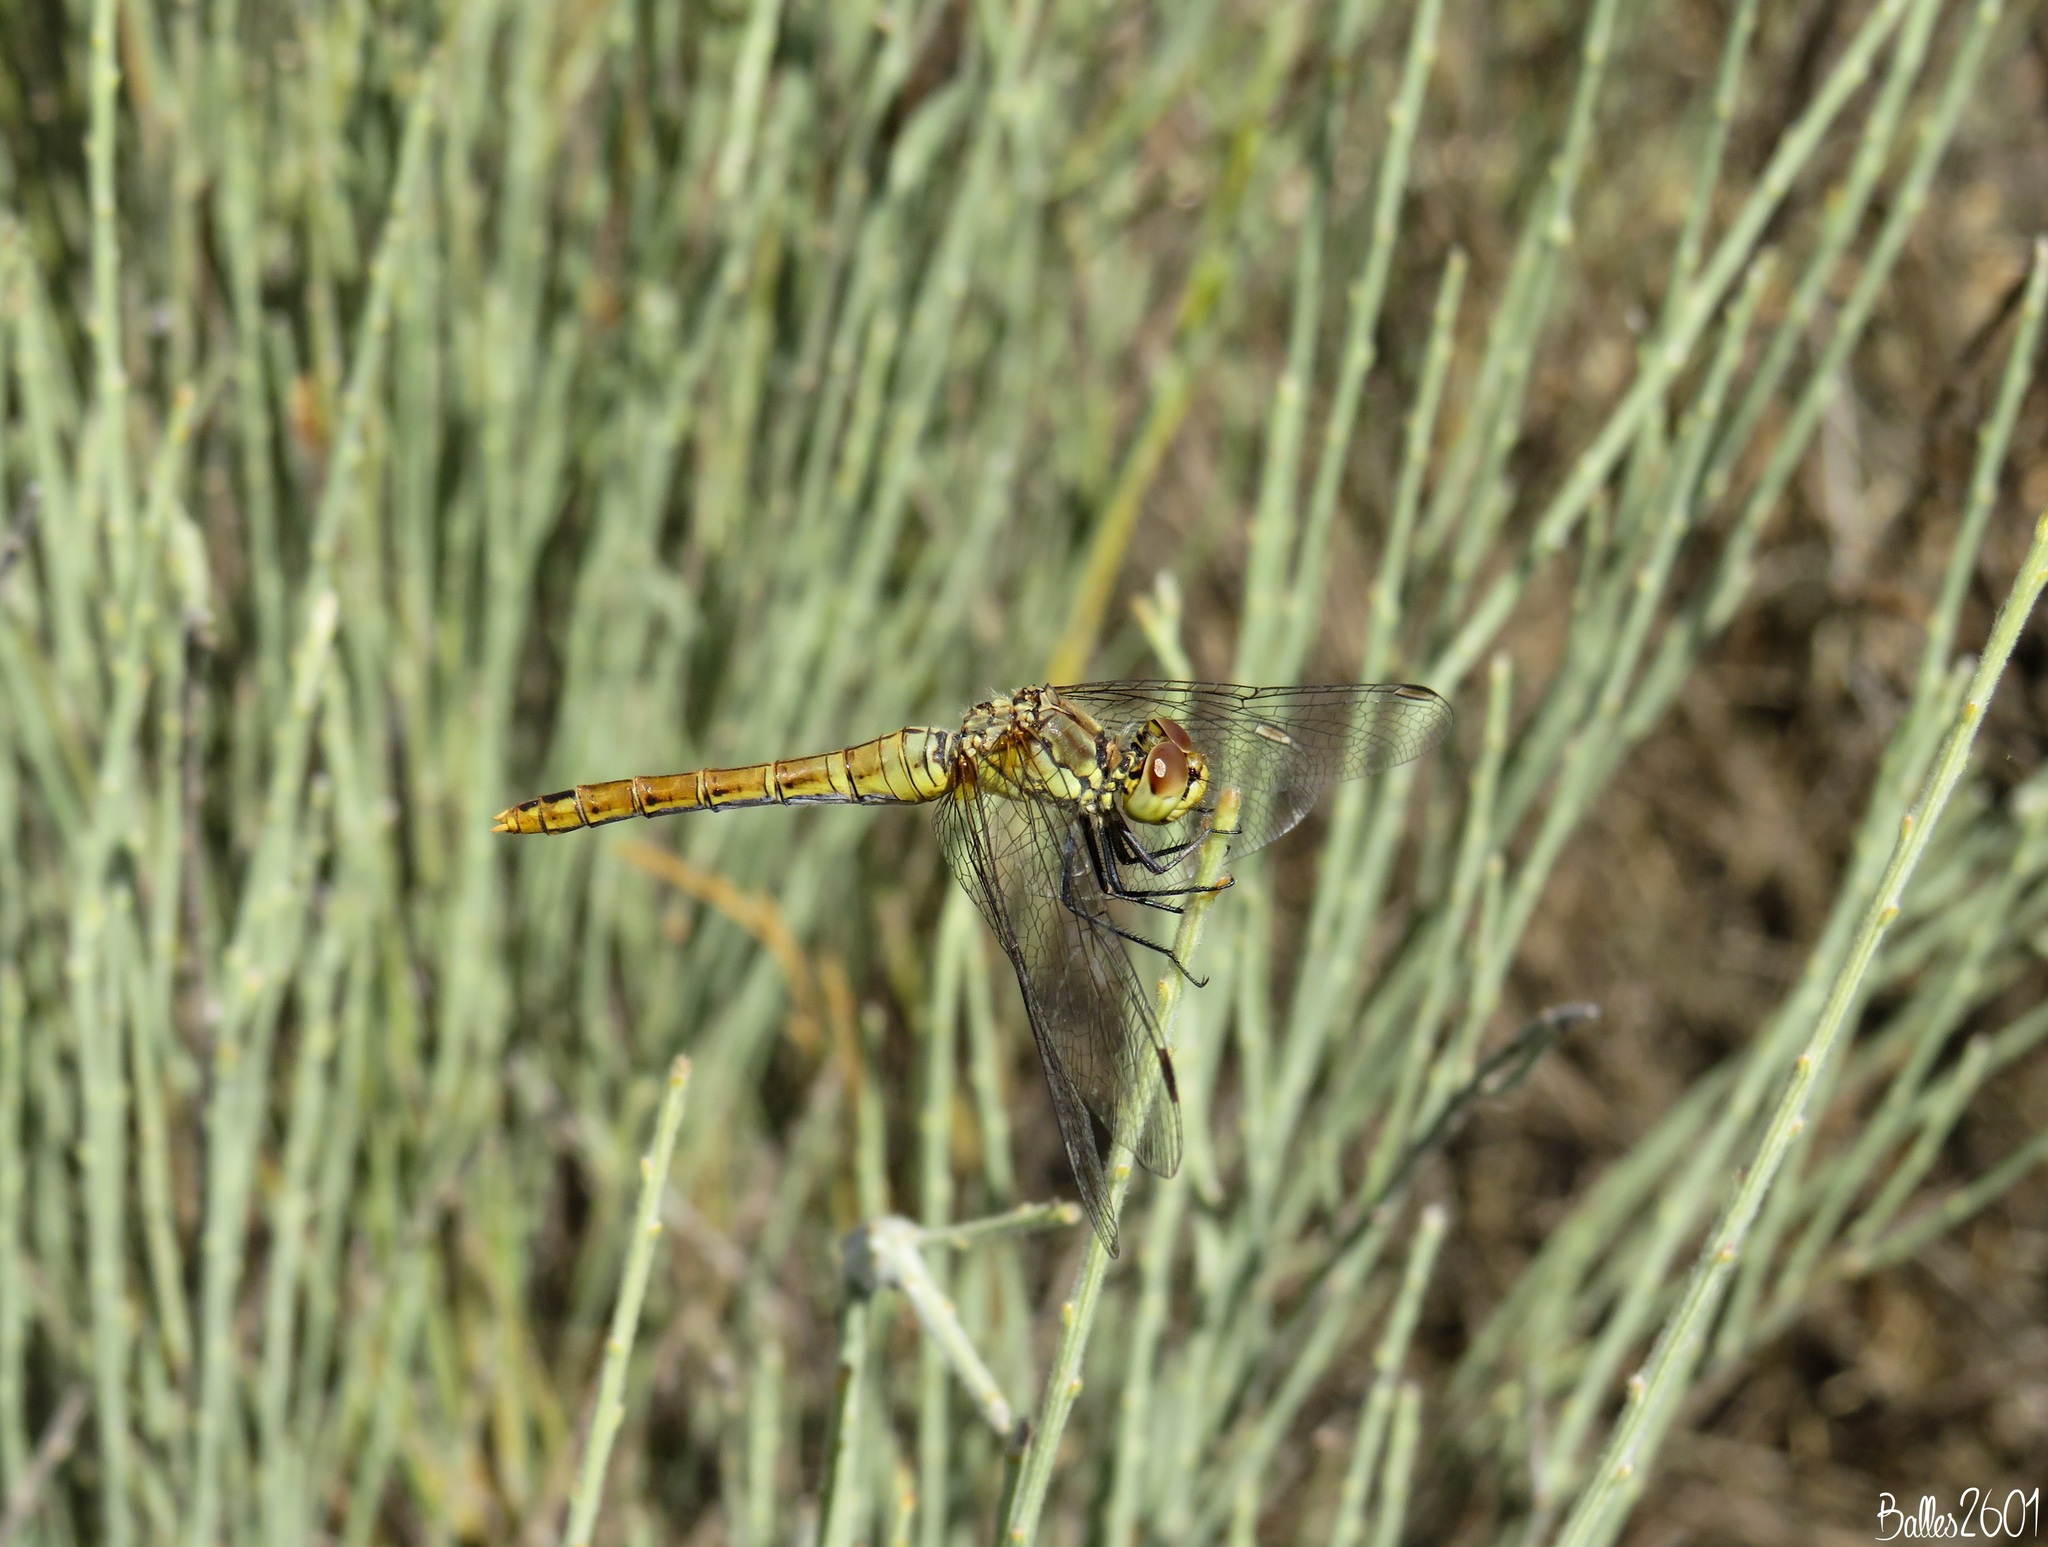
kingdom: Animalia
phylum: Arthropoda
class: Insecta
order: Odonata
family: Libellulidae
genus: Sympetrum
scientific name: Sympetrum sanguineum
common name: Ruddy darter
